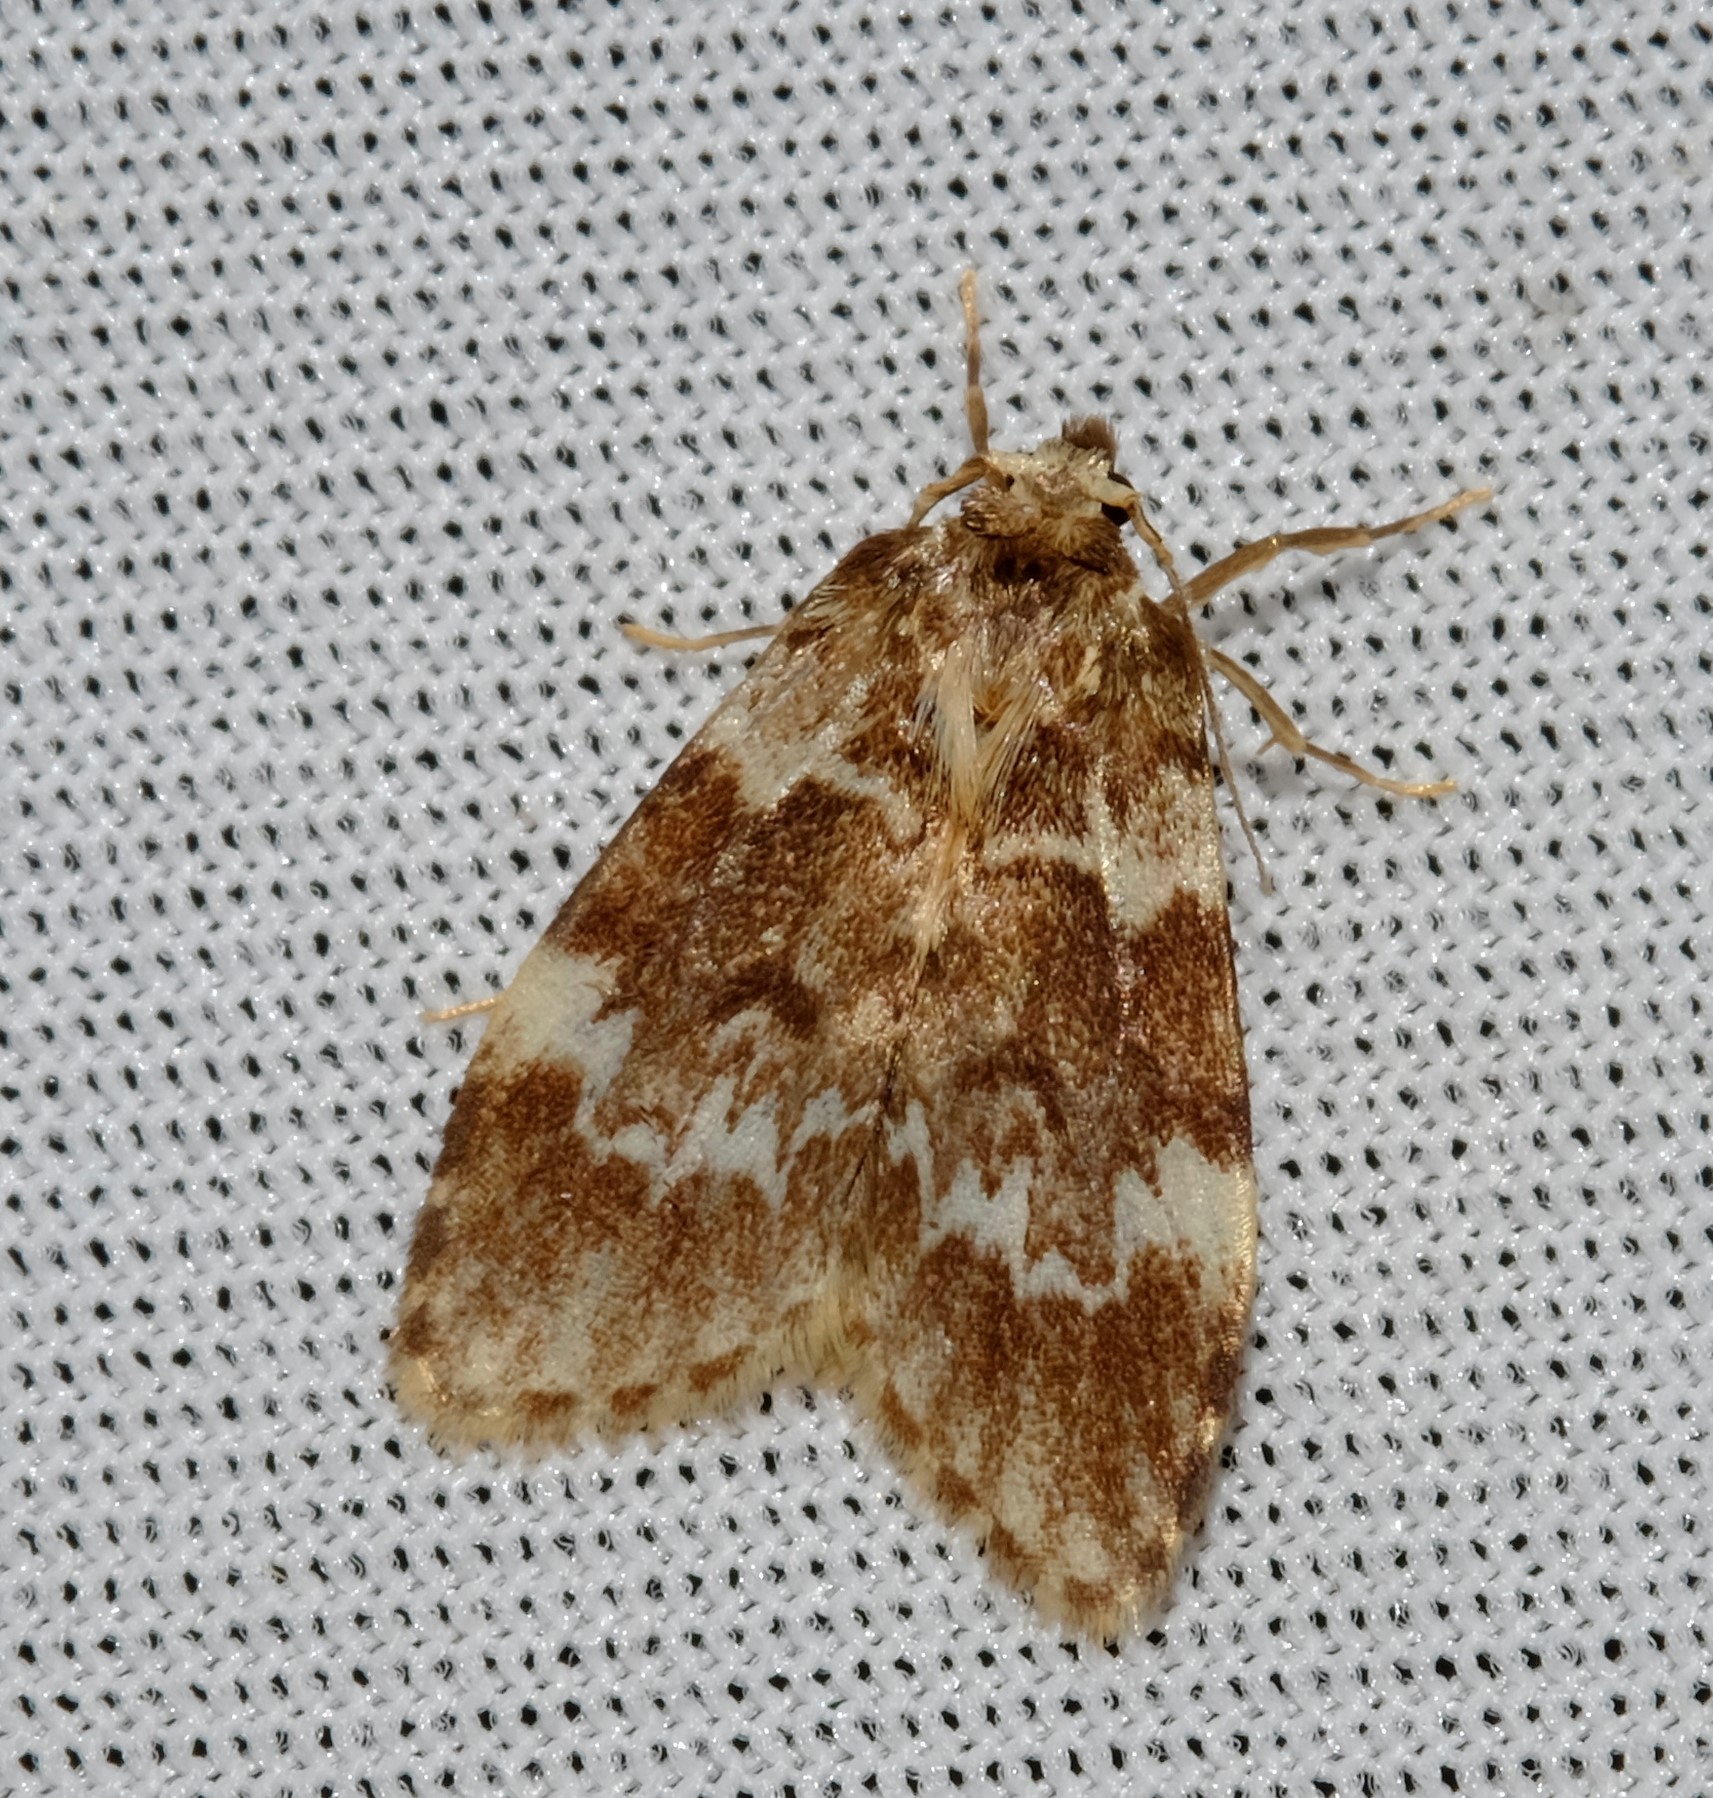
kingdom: Animalia
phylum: Arthropoda
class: Insecta
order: Lepidoptera
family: Erebidae
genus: Scaphidriotis
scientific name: Scaphidriotis xylogramma
